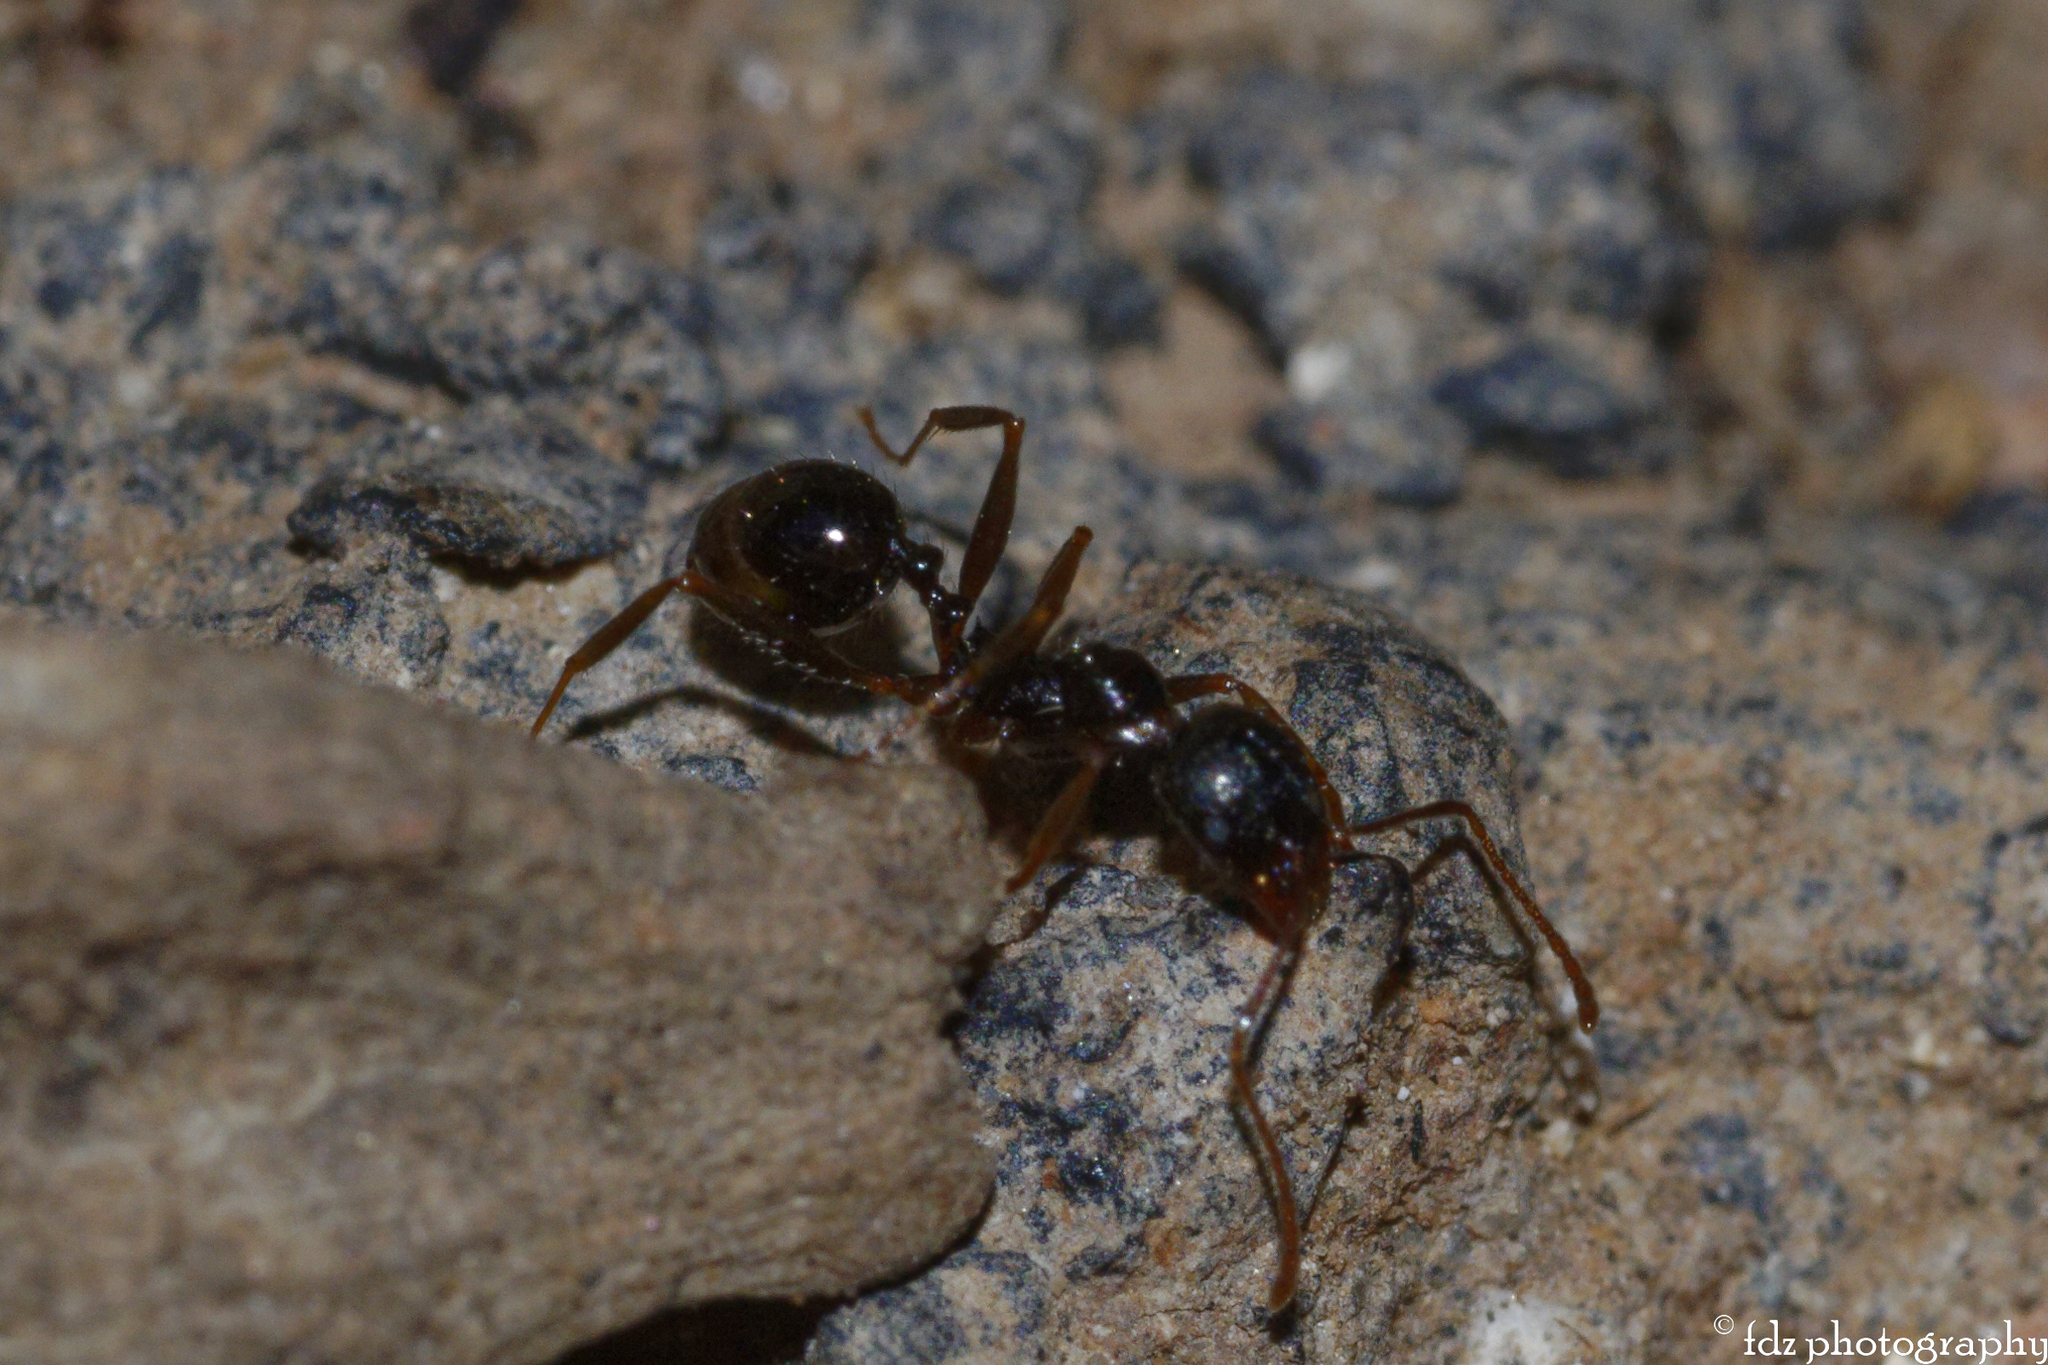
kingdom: Animalia
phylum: Arthropoda
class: Insecta
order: Hymenoptera
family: Formicidae
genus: Aphaenogaster
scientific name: Aphaenogaster gibbosa
